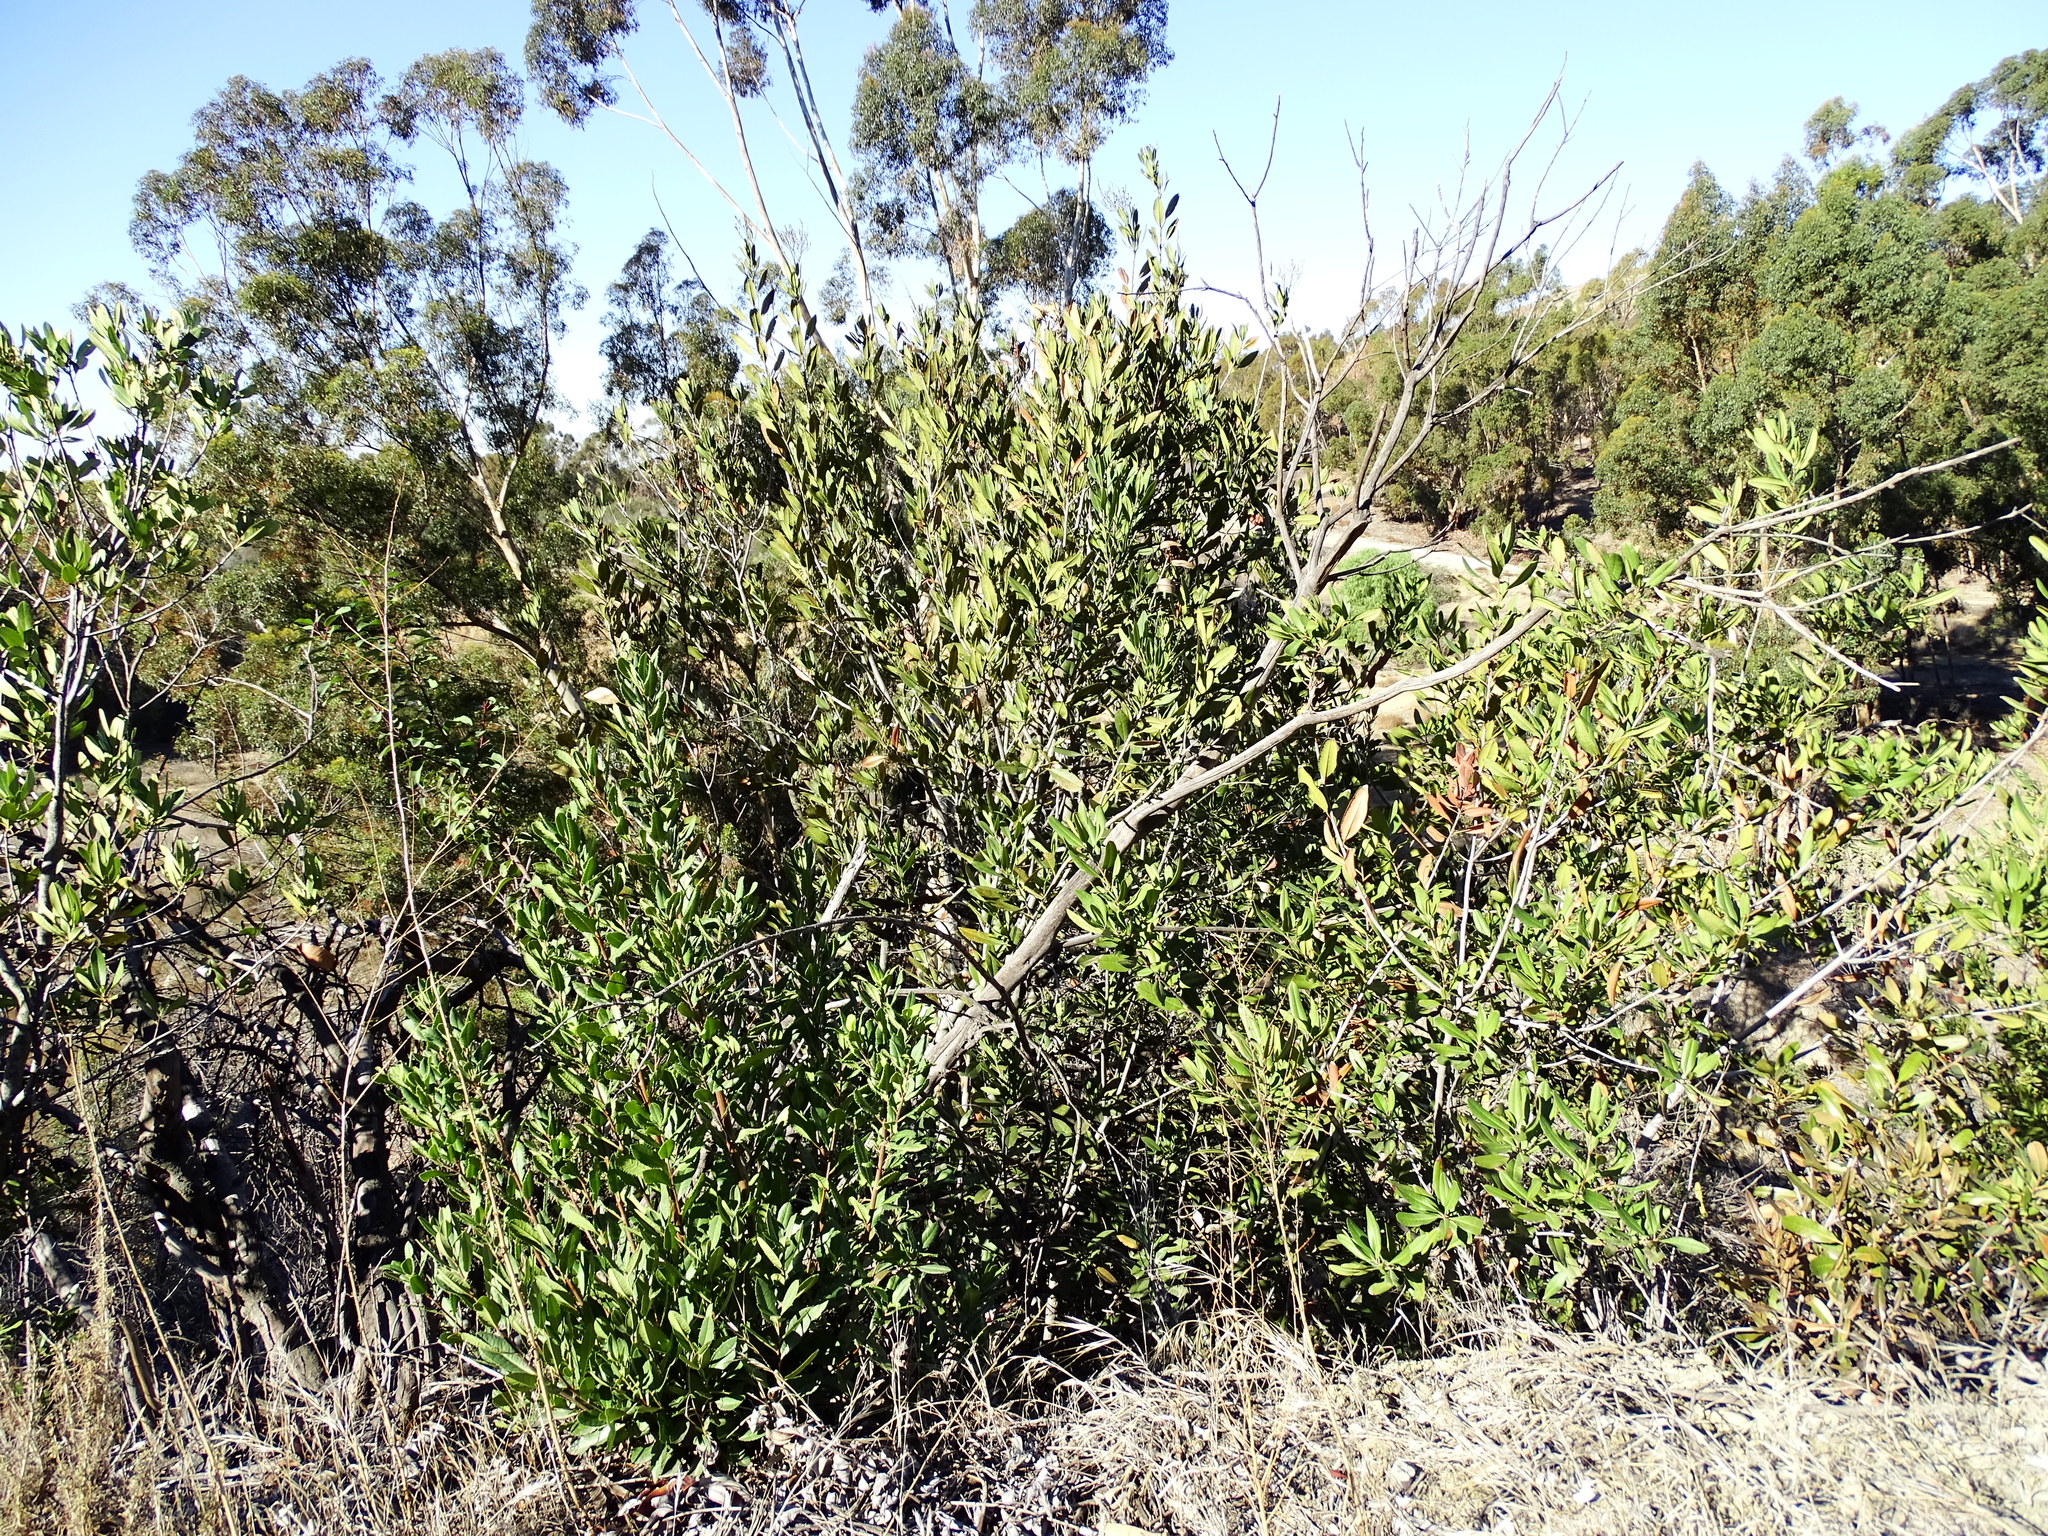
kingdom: Plantae
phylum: Tracheophyta
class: Magnoliopsida
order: Rosales
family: Rosaceae
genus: Heteromeles
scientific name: Heteromeles arbutifolia
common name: California-holly
